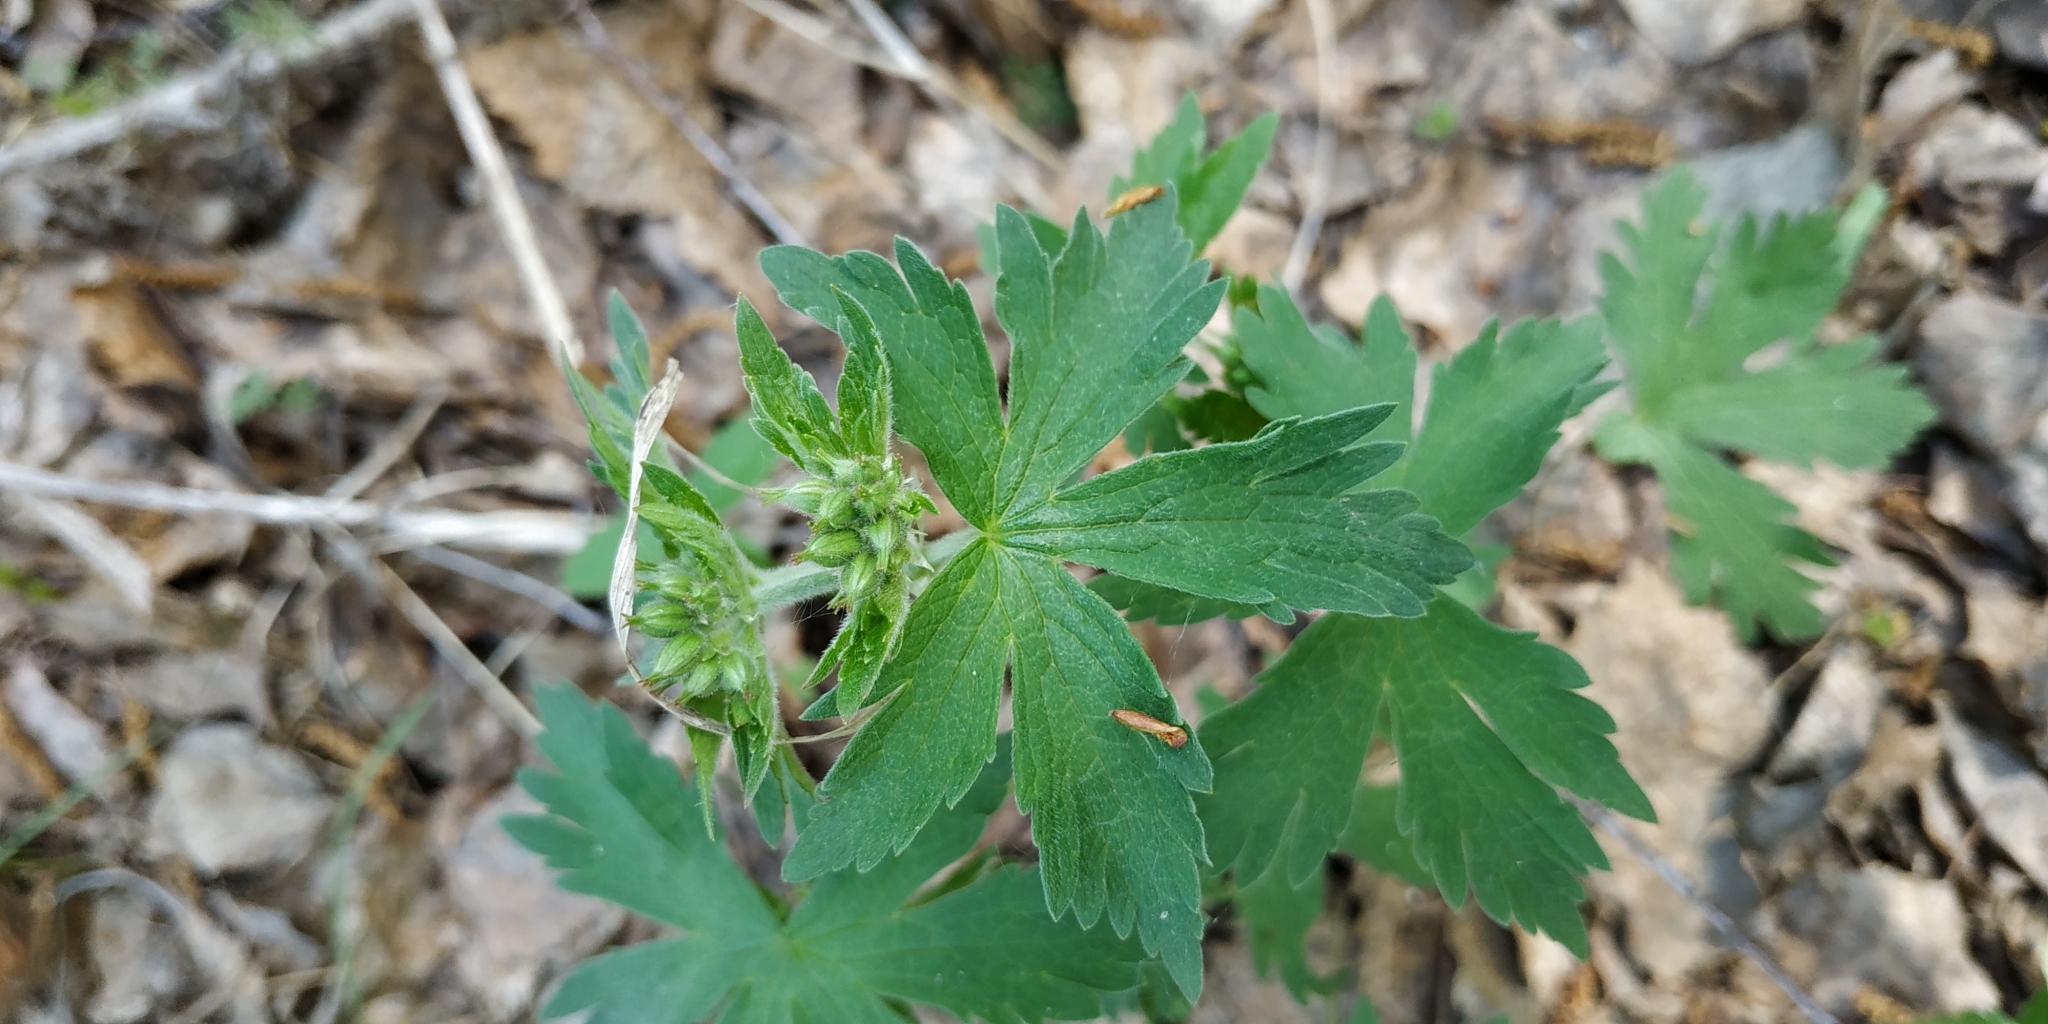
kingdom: Plantae
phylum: Tracheophyta
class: Magnoliopsida
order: Geraniales
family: Geraniaceae
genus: Geranium
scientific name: Geranium sylvaticum
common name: Wood crane's-bill
